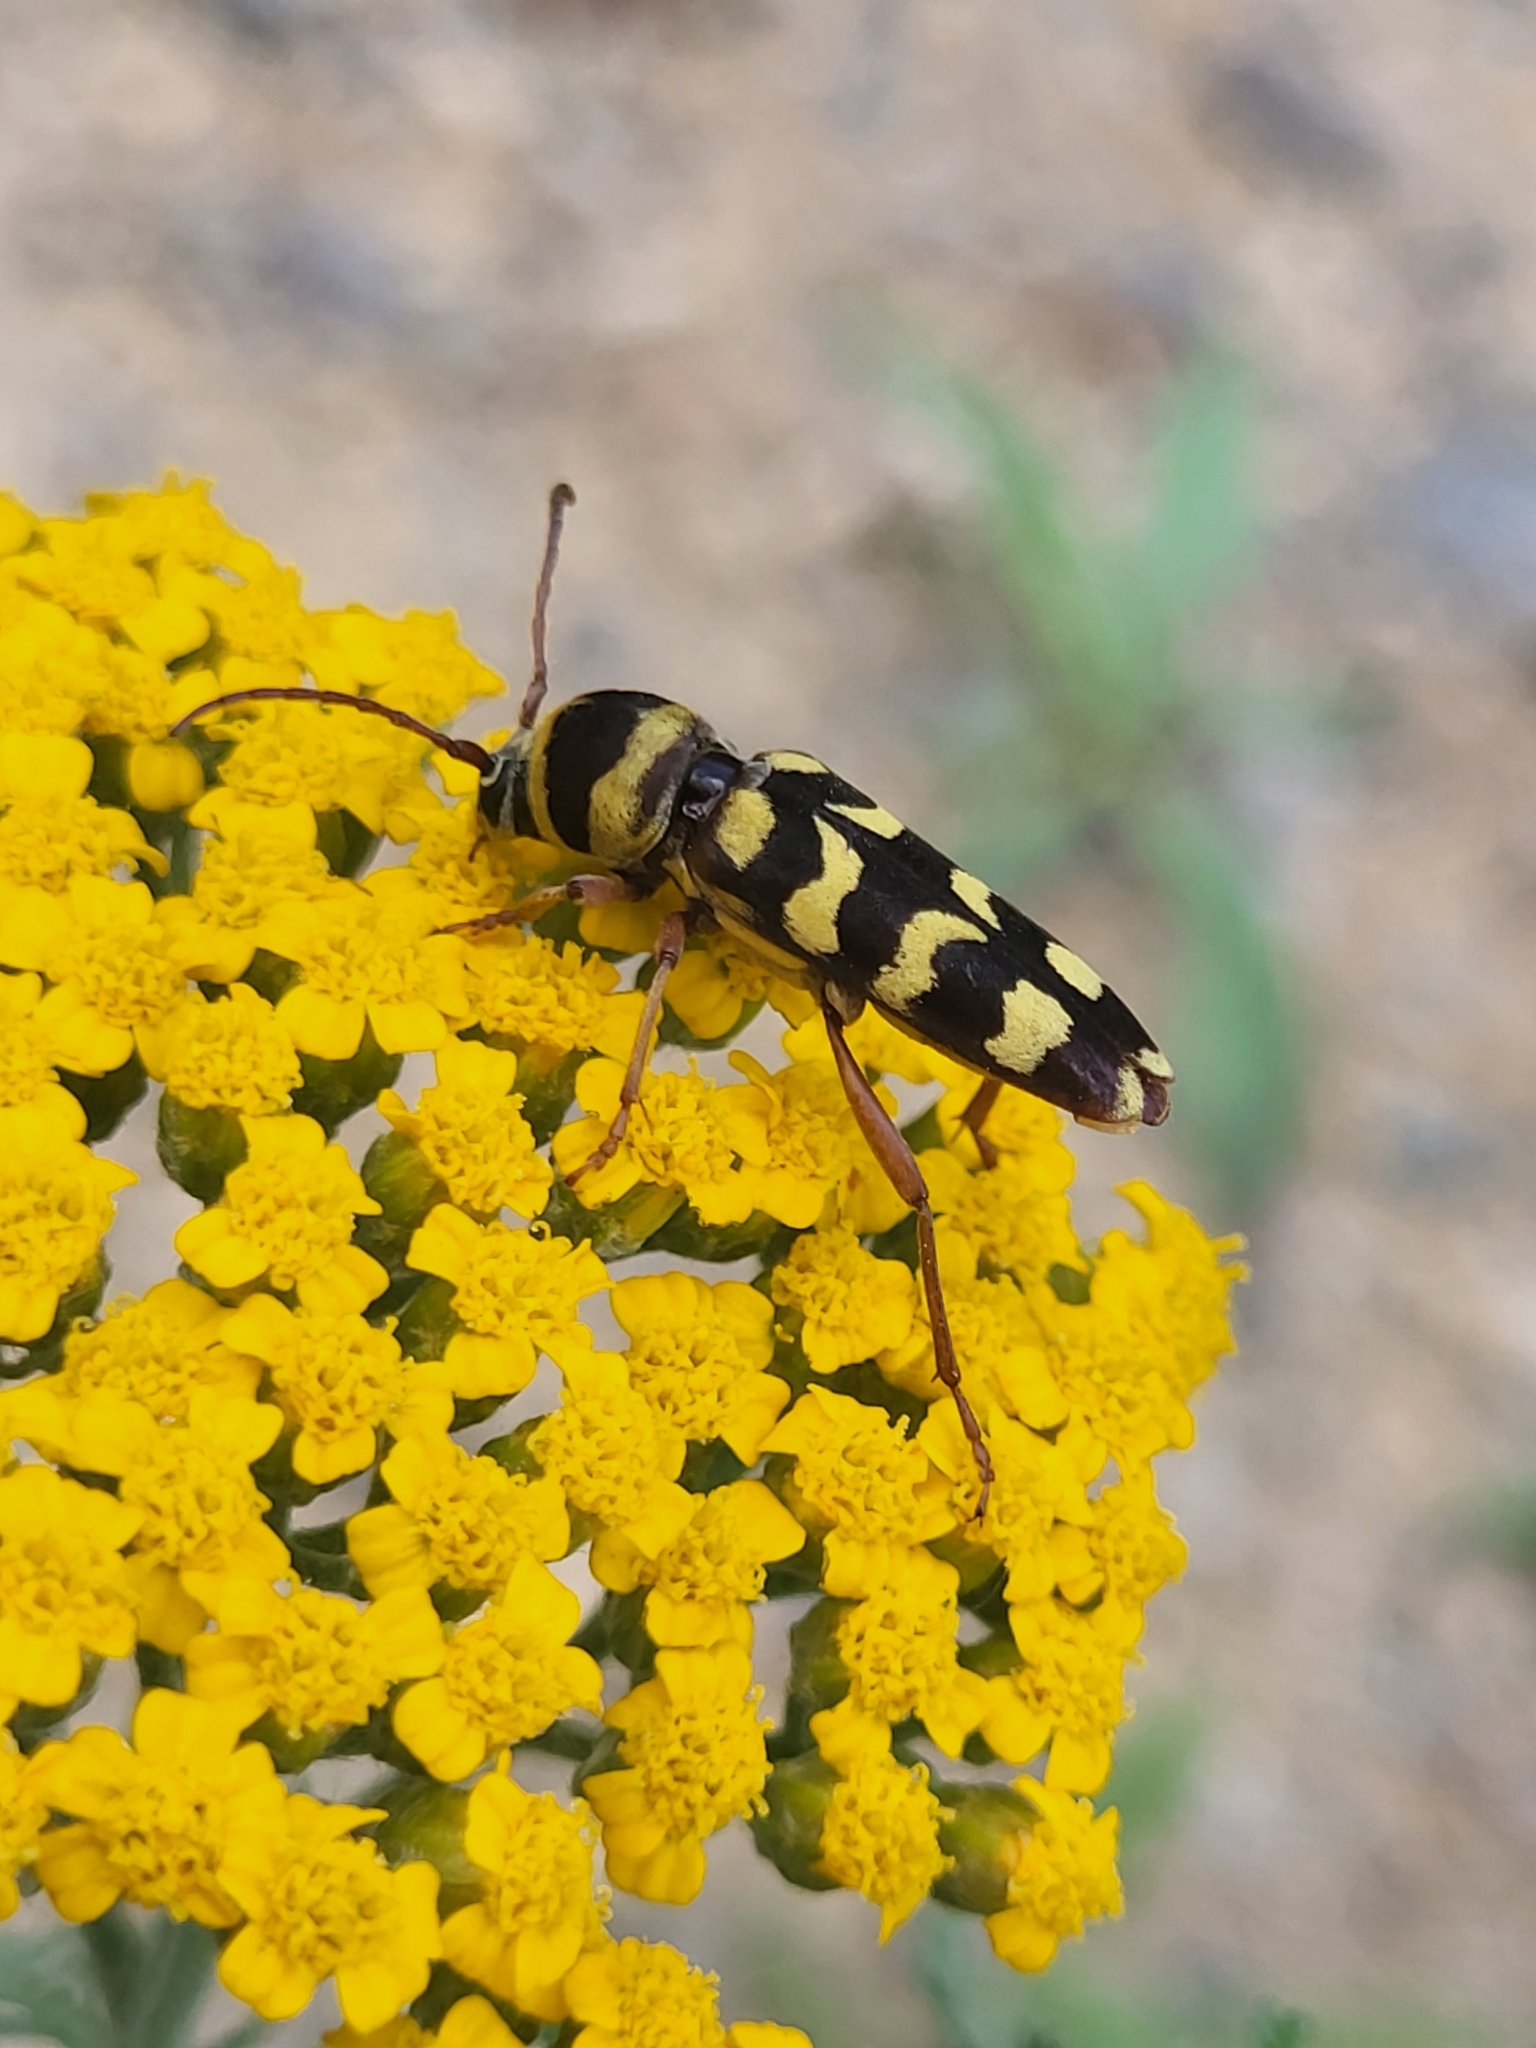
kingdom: Animalia
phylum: Arthropoda
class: Insecta
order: Coleoptera
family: Cerambycidae
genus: Plagionotus
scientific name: Plagionotus floralis
